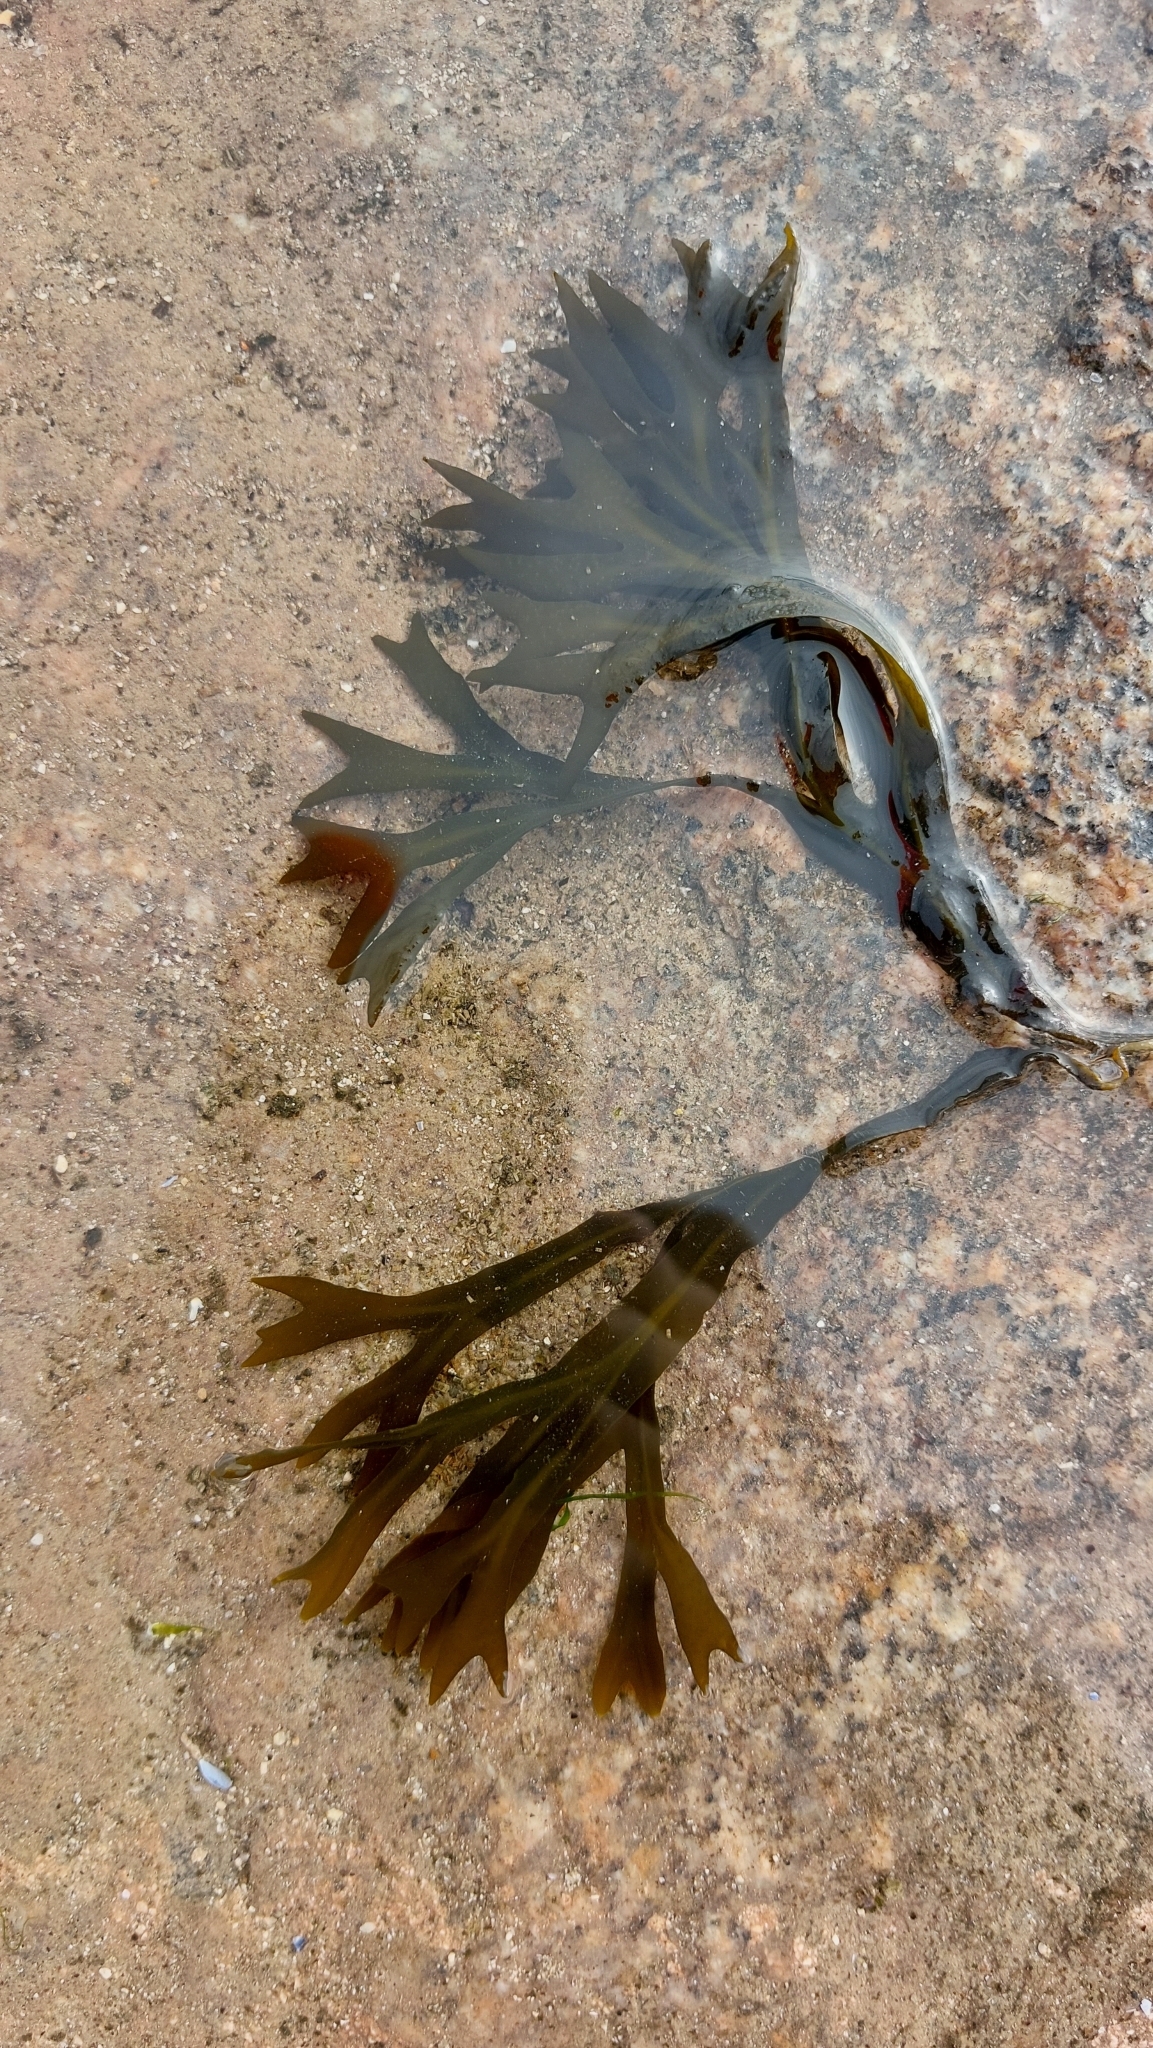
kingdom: Chromista
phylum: Ochrophyta
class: Phaeophyceae
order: Fucales
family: Fucaceae
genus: Fucus
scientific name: Fucus ceranoides
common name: Horned wrack
